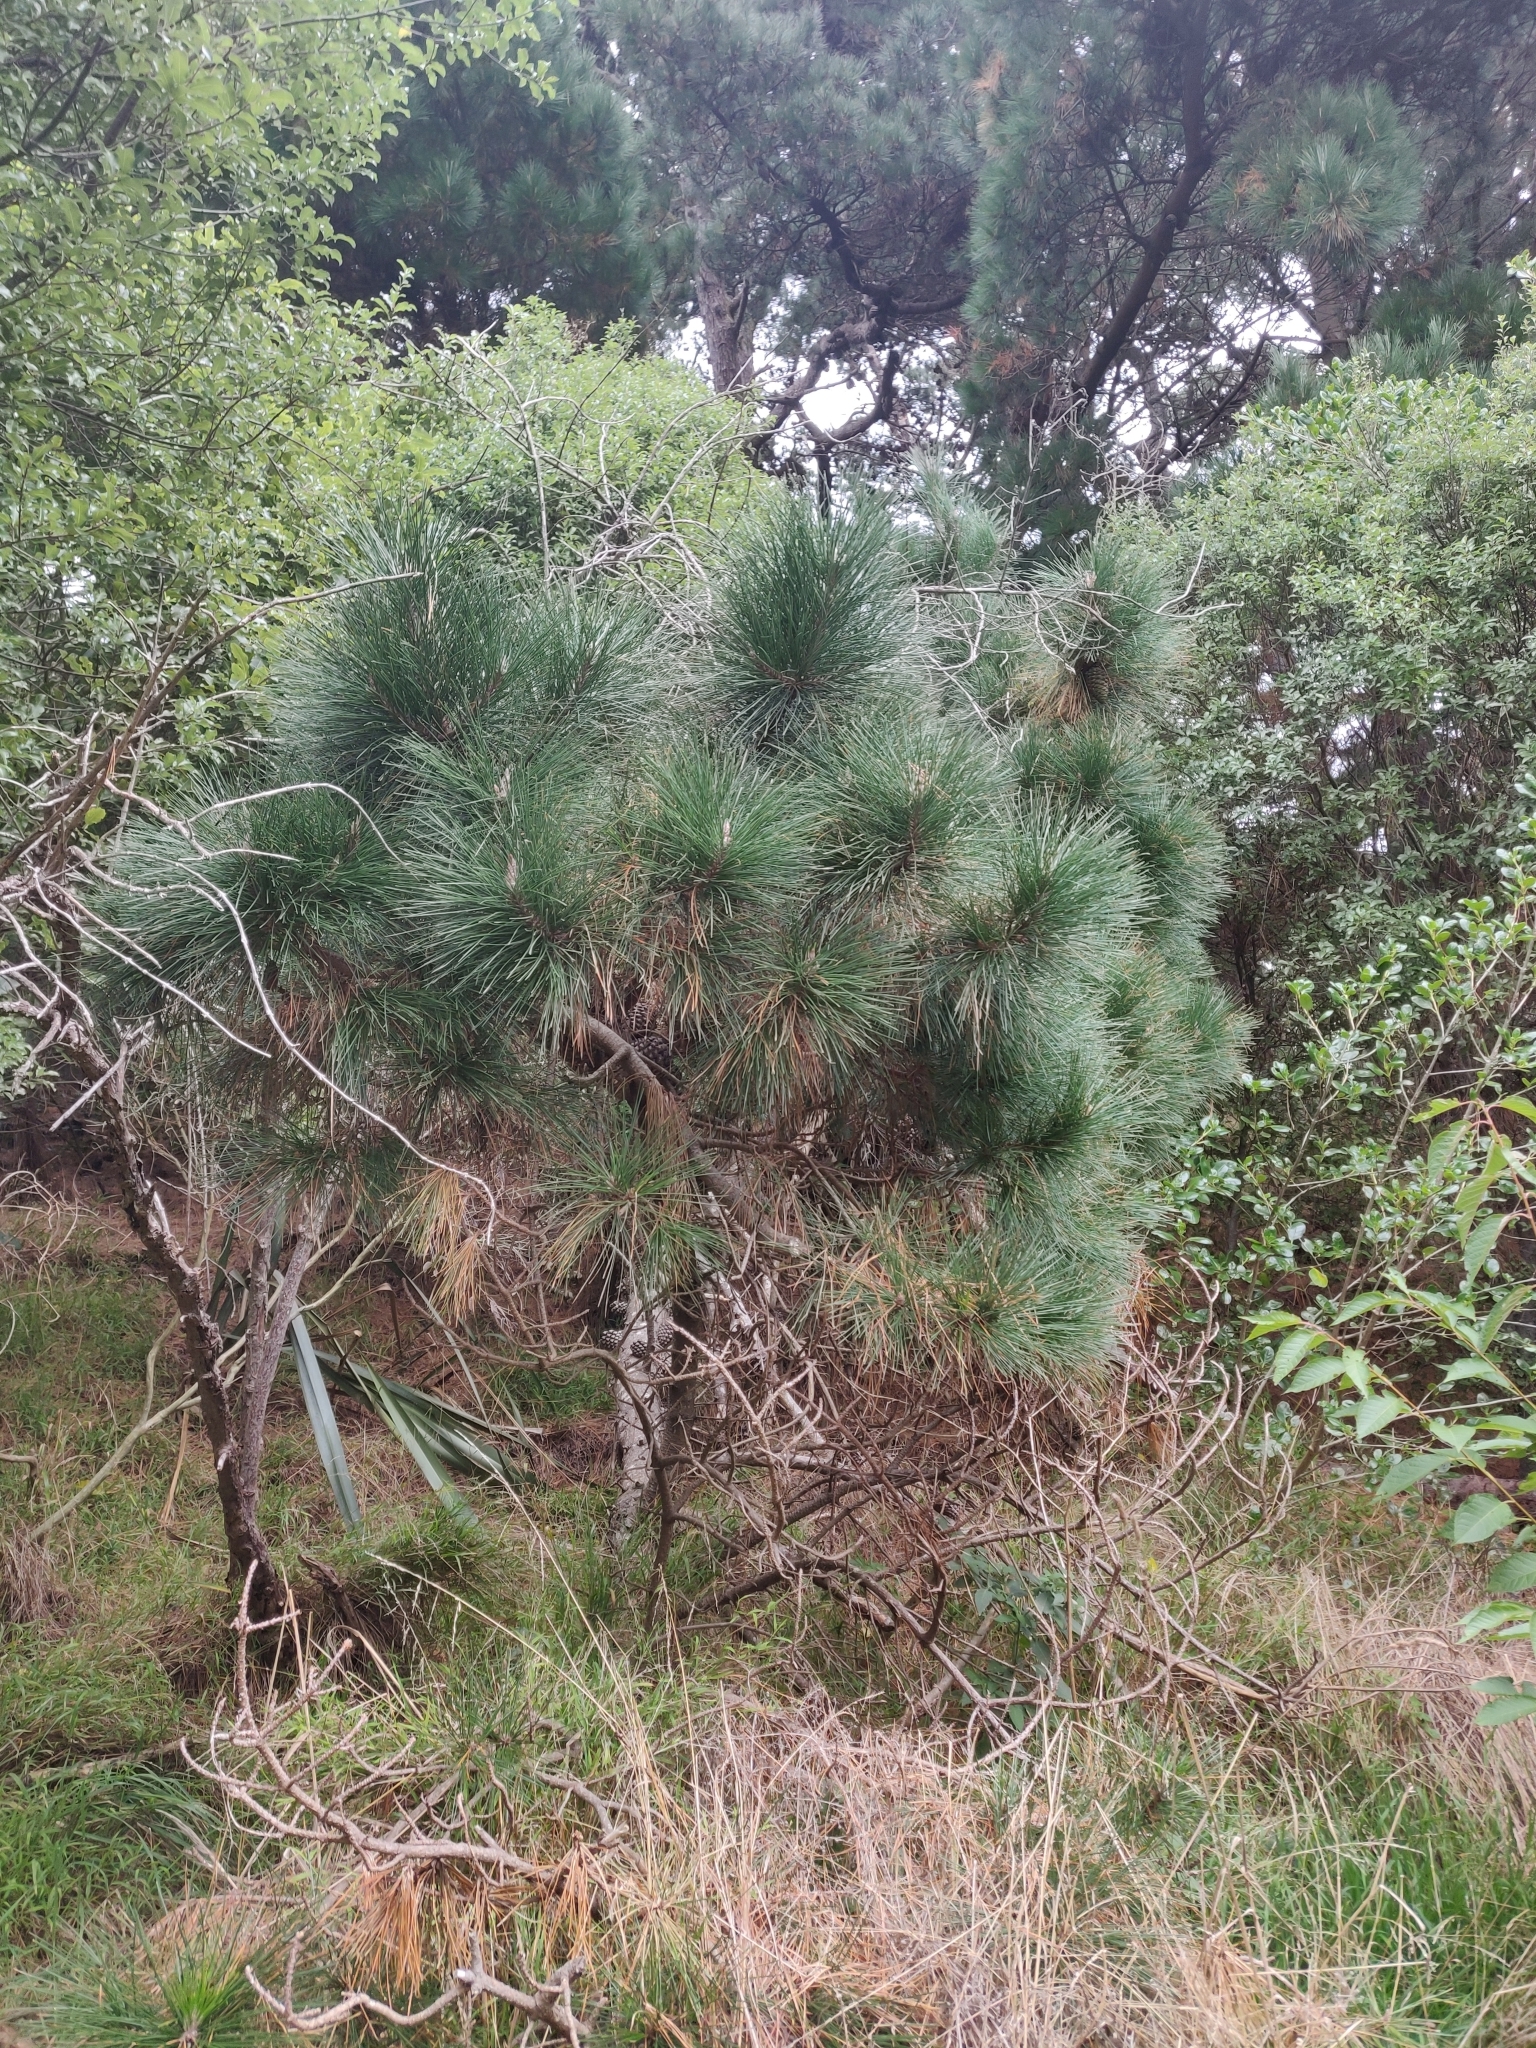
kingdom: Plantae
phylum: Tracheophyta
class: Pinopsida
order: Pinales
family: Pinaceae
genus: Pinus
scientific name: Pinus radiata
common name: Monterey pine
